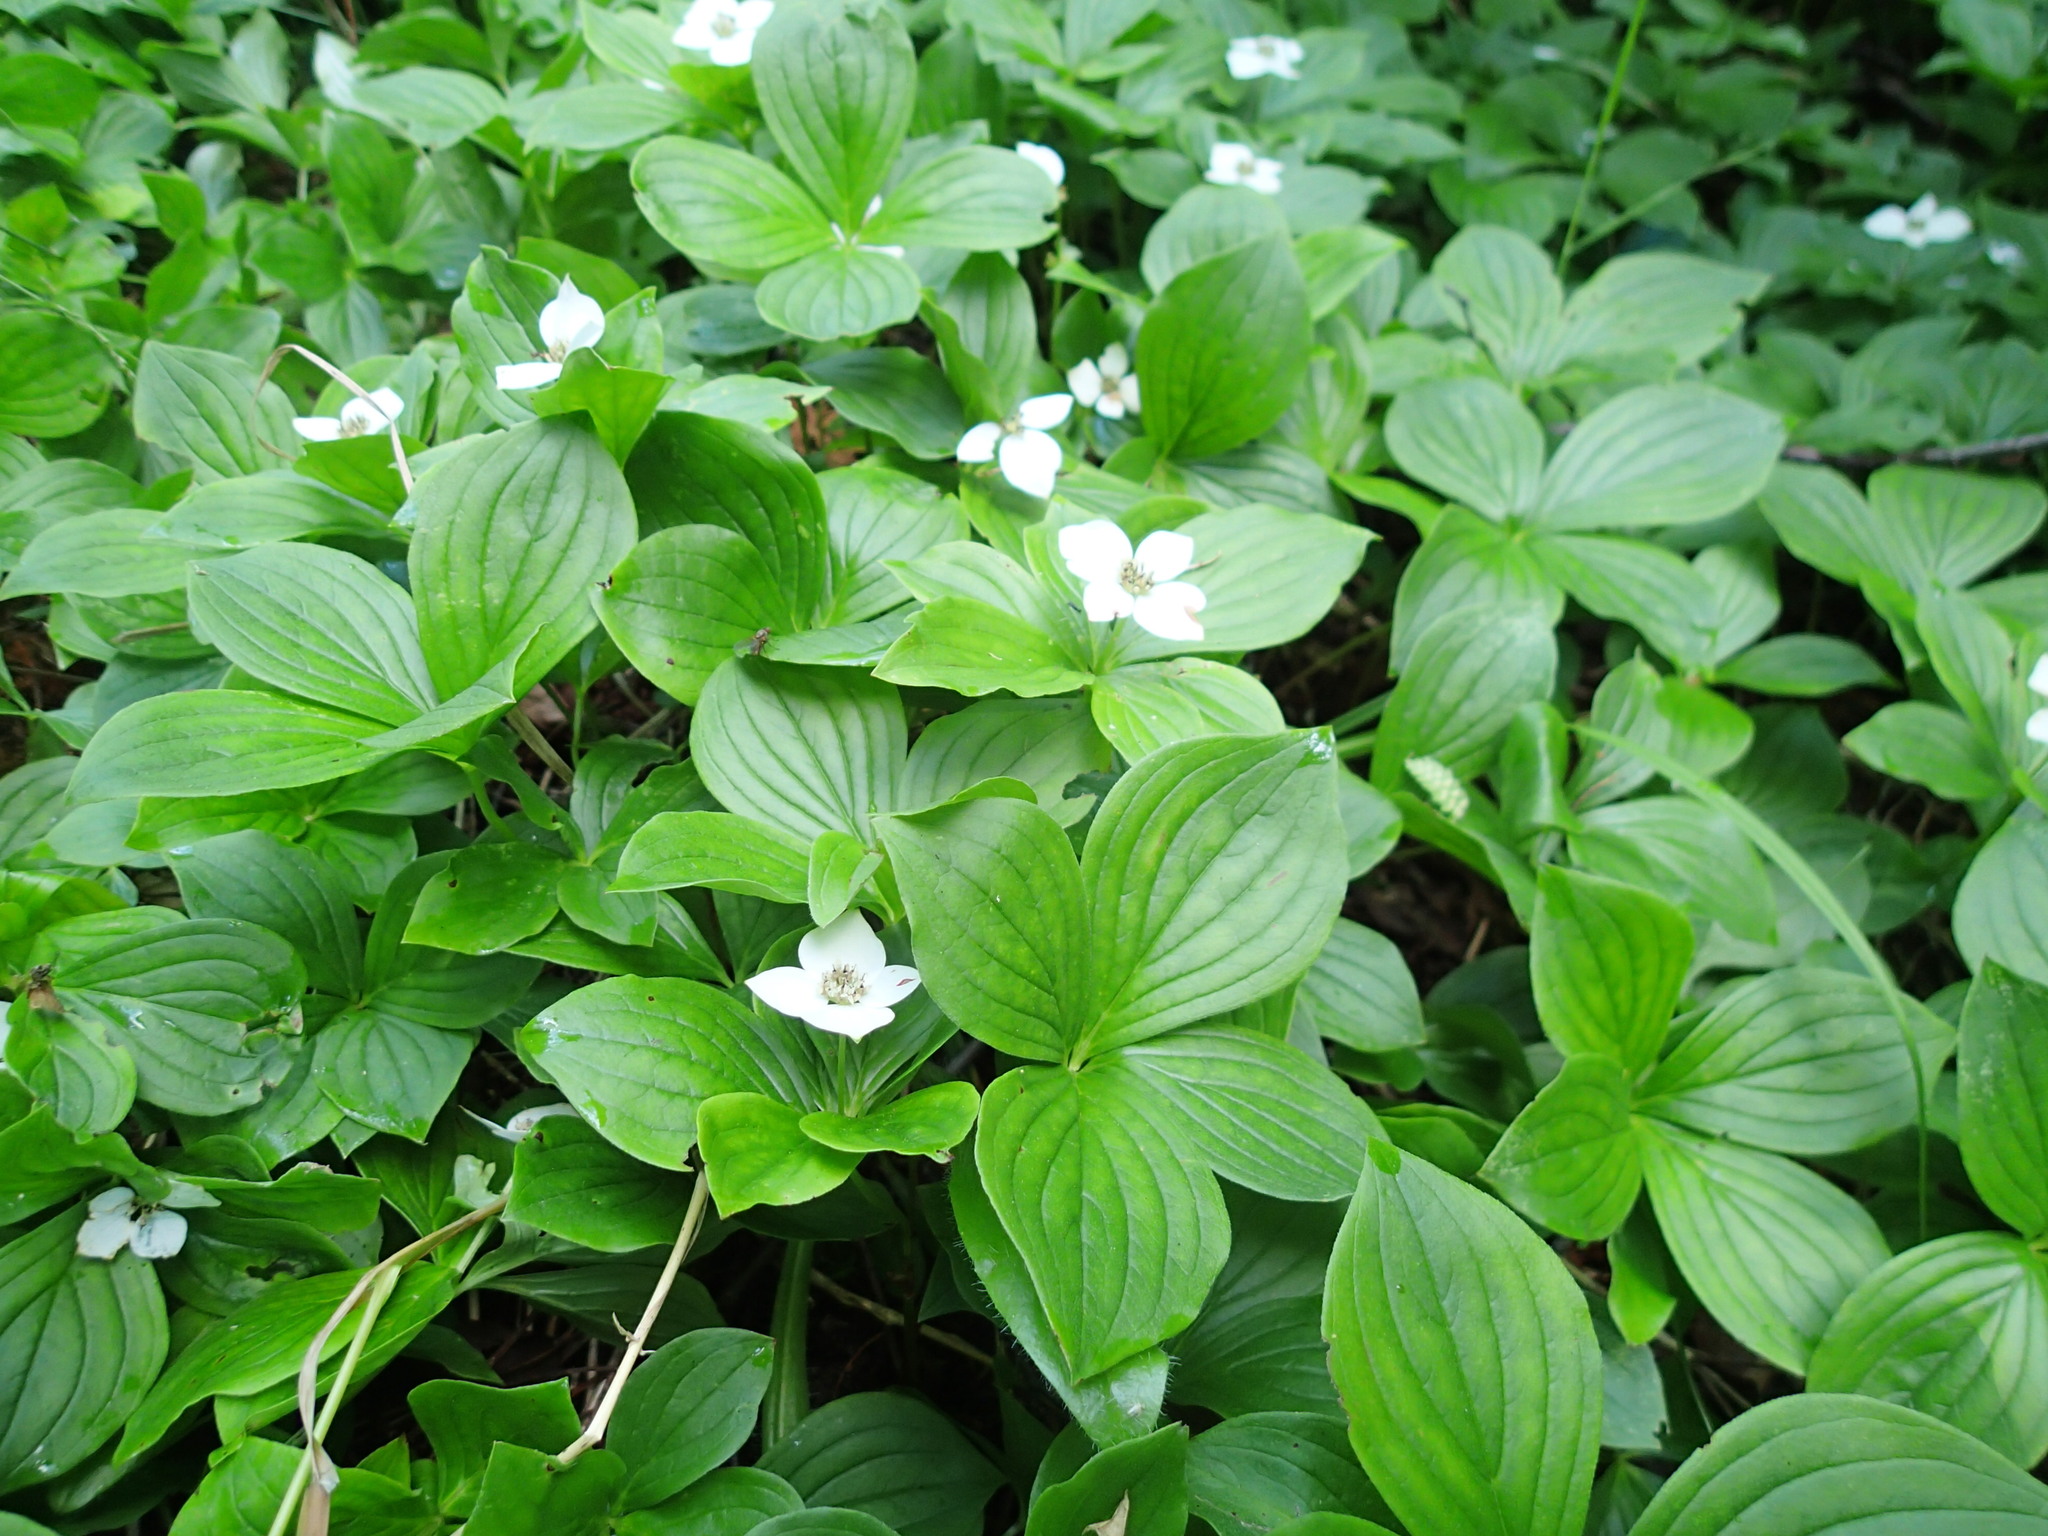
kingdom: Plantae
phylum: Tracheophyta
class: Magnoliopsida
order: Cornales
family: Cornaceae
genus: Cornus
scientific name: Cornus canadensis
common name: Creeping dogwood
